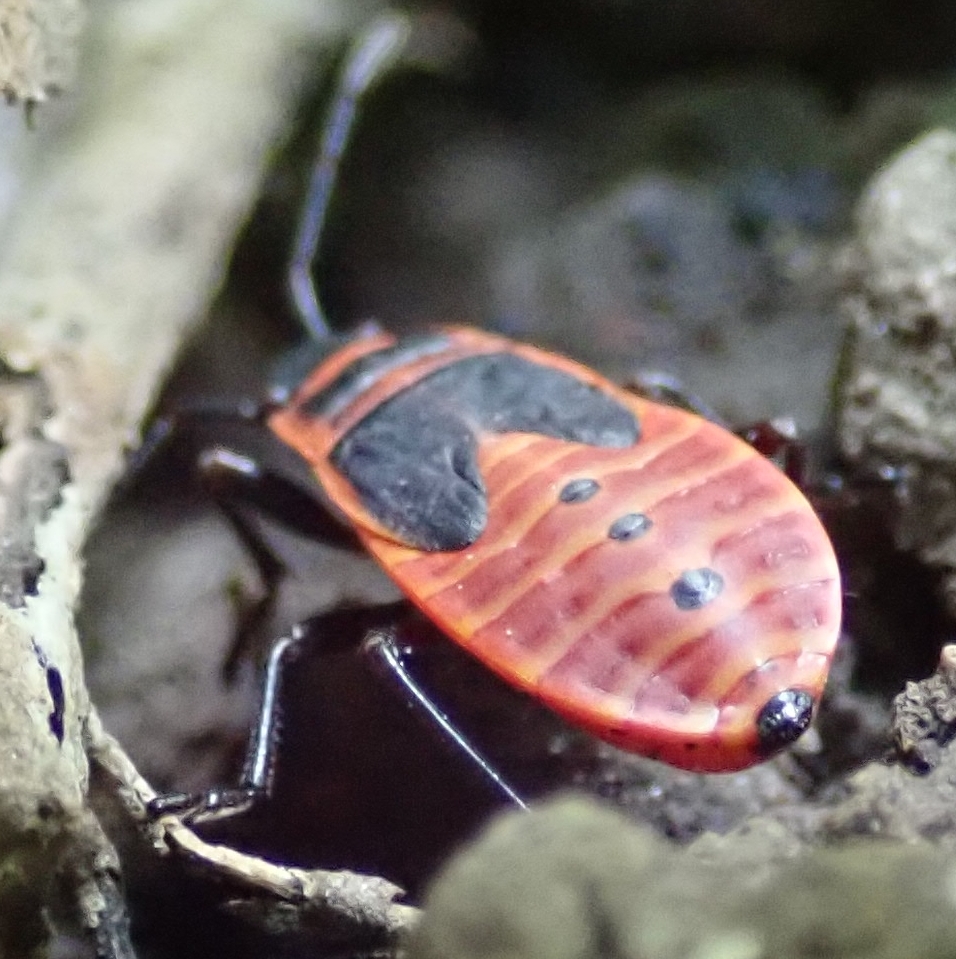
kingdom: Animalia
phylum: Arthropoda
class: Insecta
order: Hemiptera
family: Pyrrhocoridae
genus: Pyrrhocoris
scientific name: Pyrrhocoris apterus
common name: Firebug
